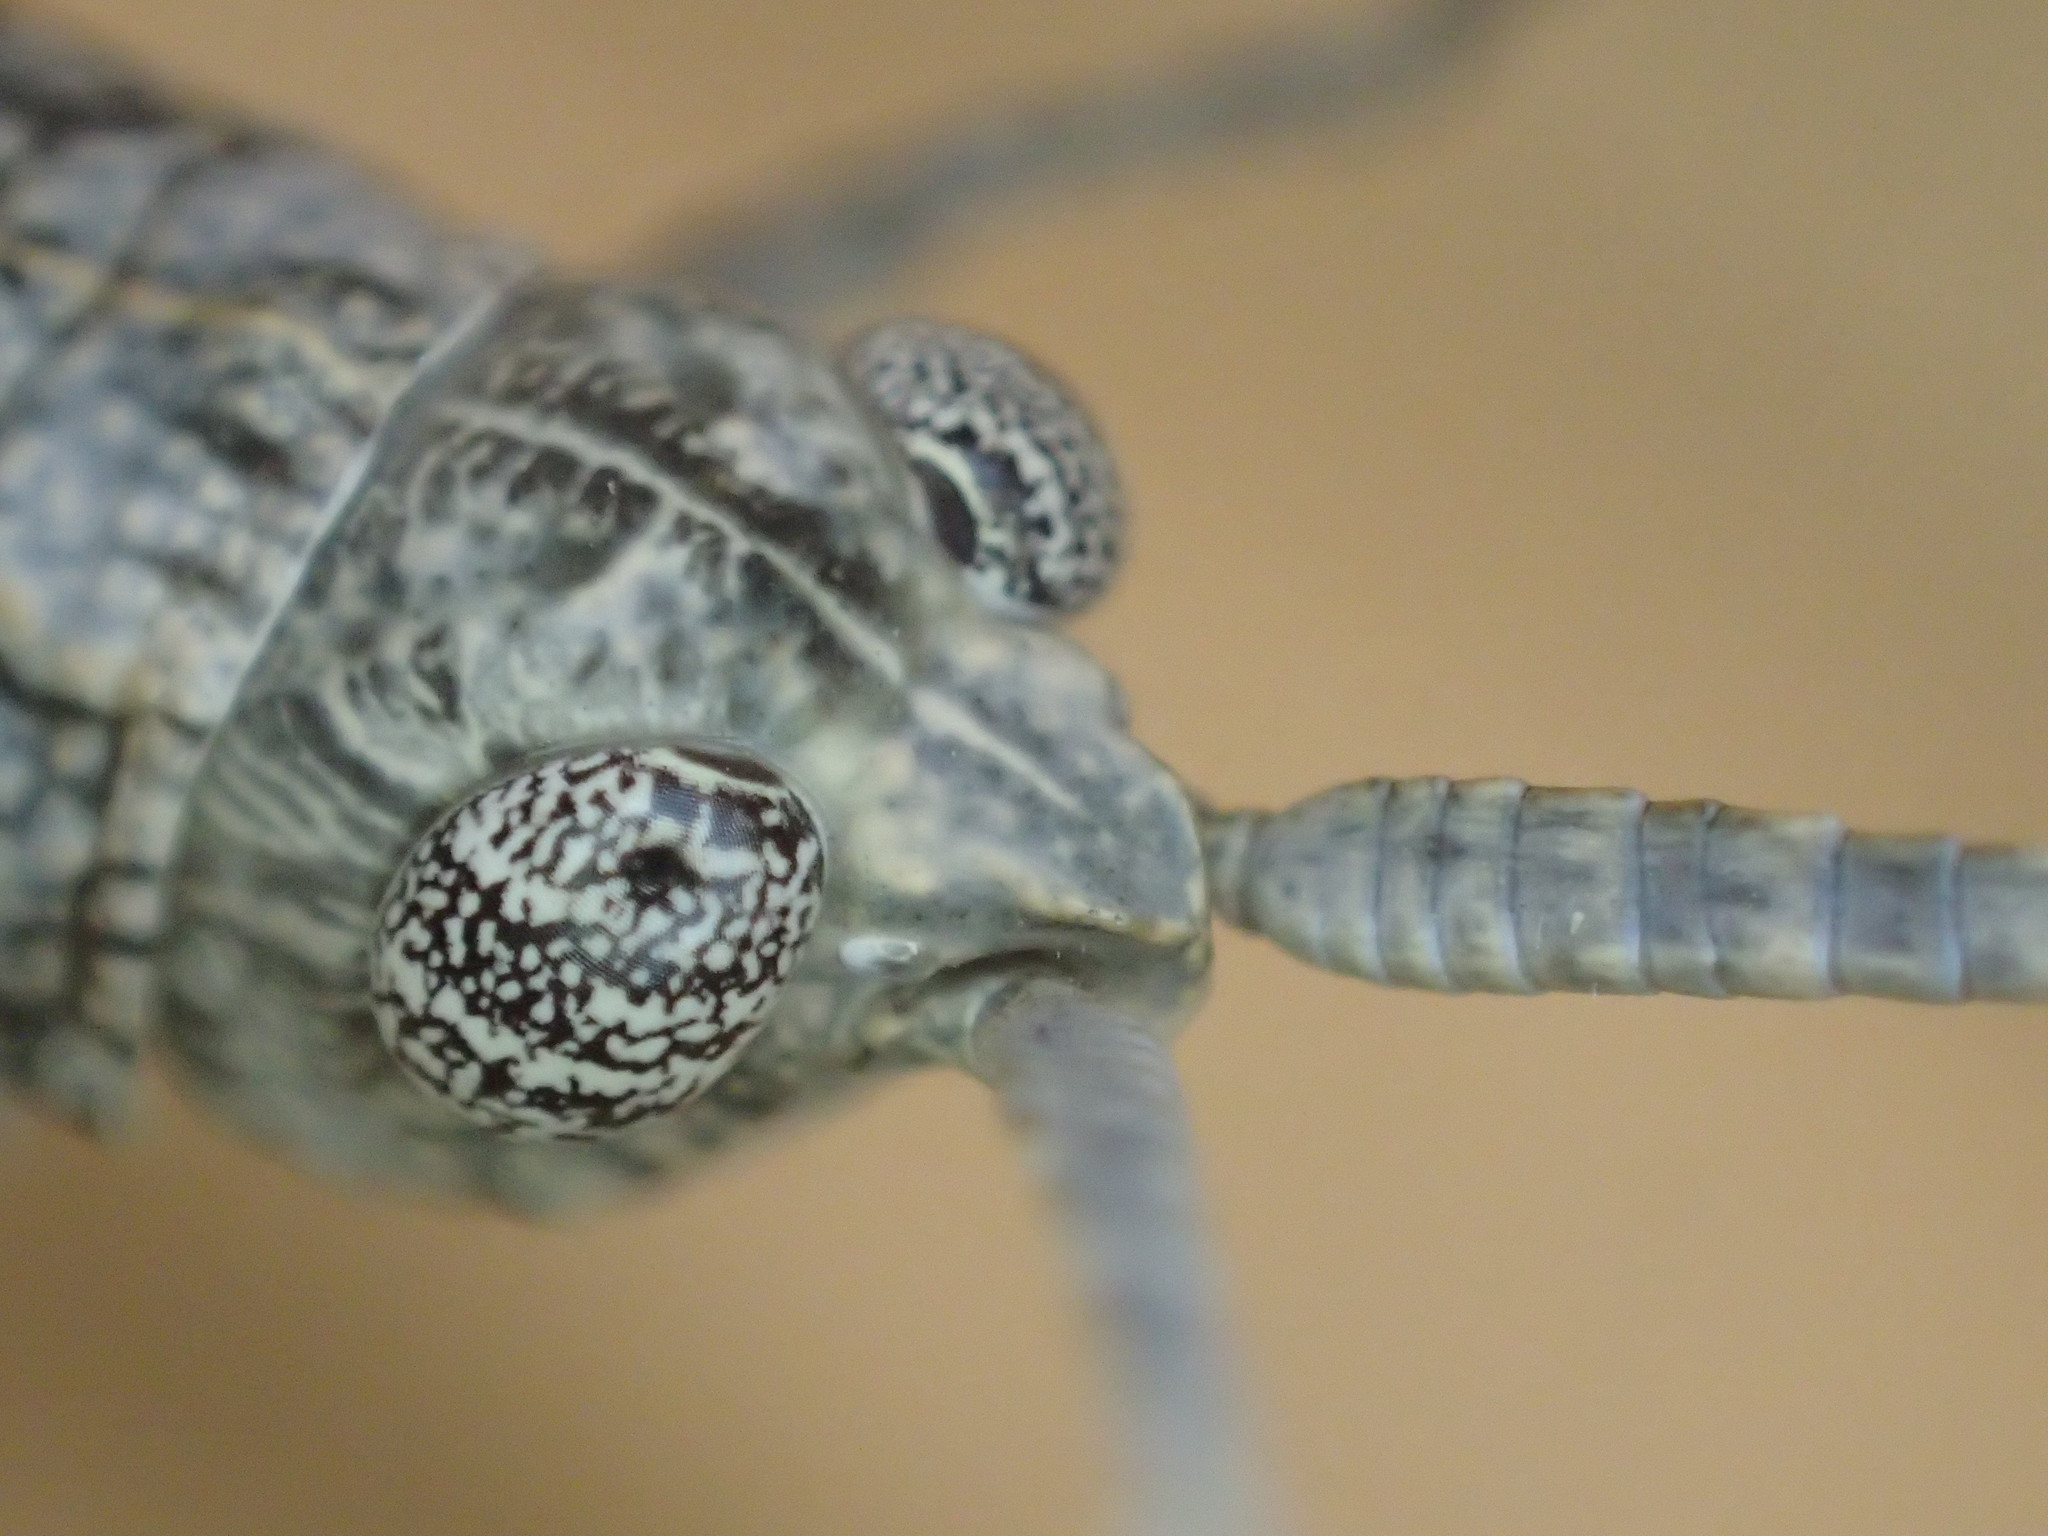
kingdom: Animalia
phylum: Arthropoda
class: Insecta
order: Orthoptera
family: Acrididae
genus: Coryphistes
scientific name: Coryphistes interioris
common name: Hairy coryphistes
